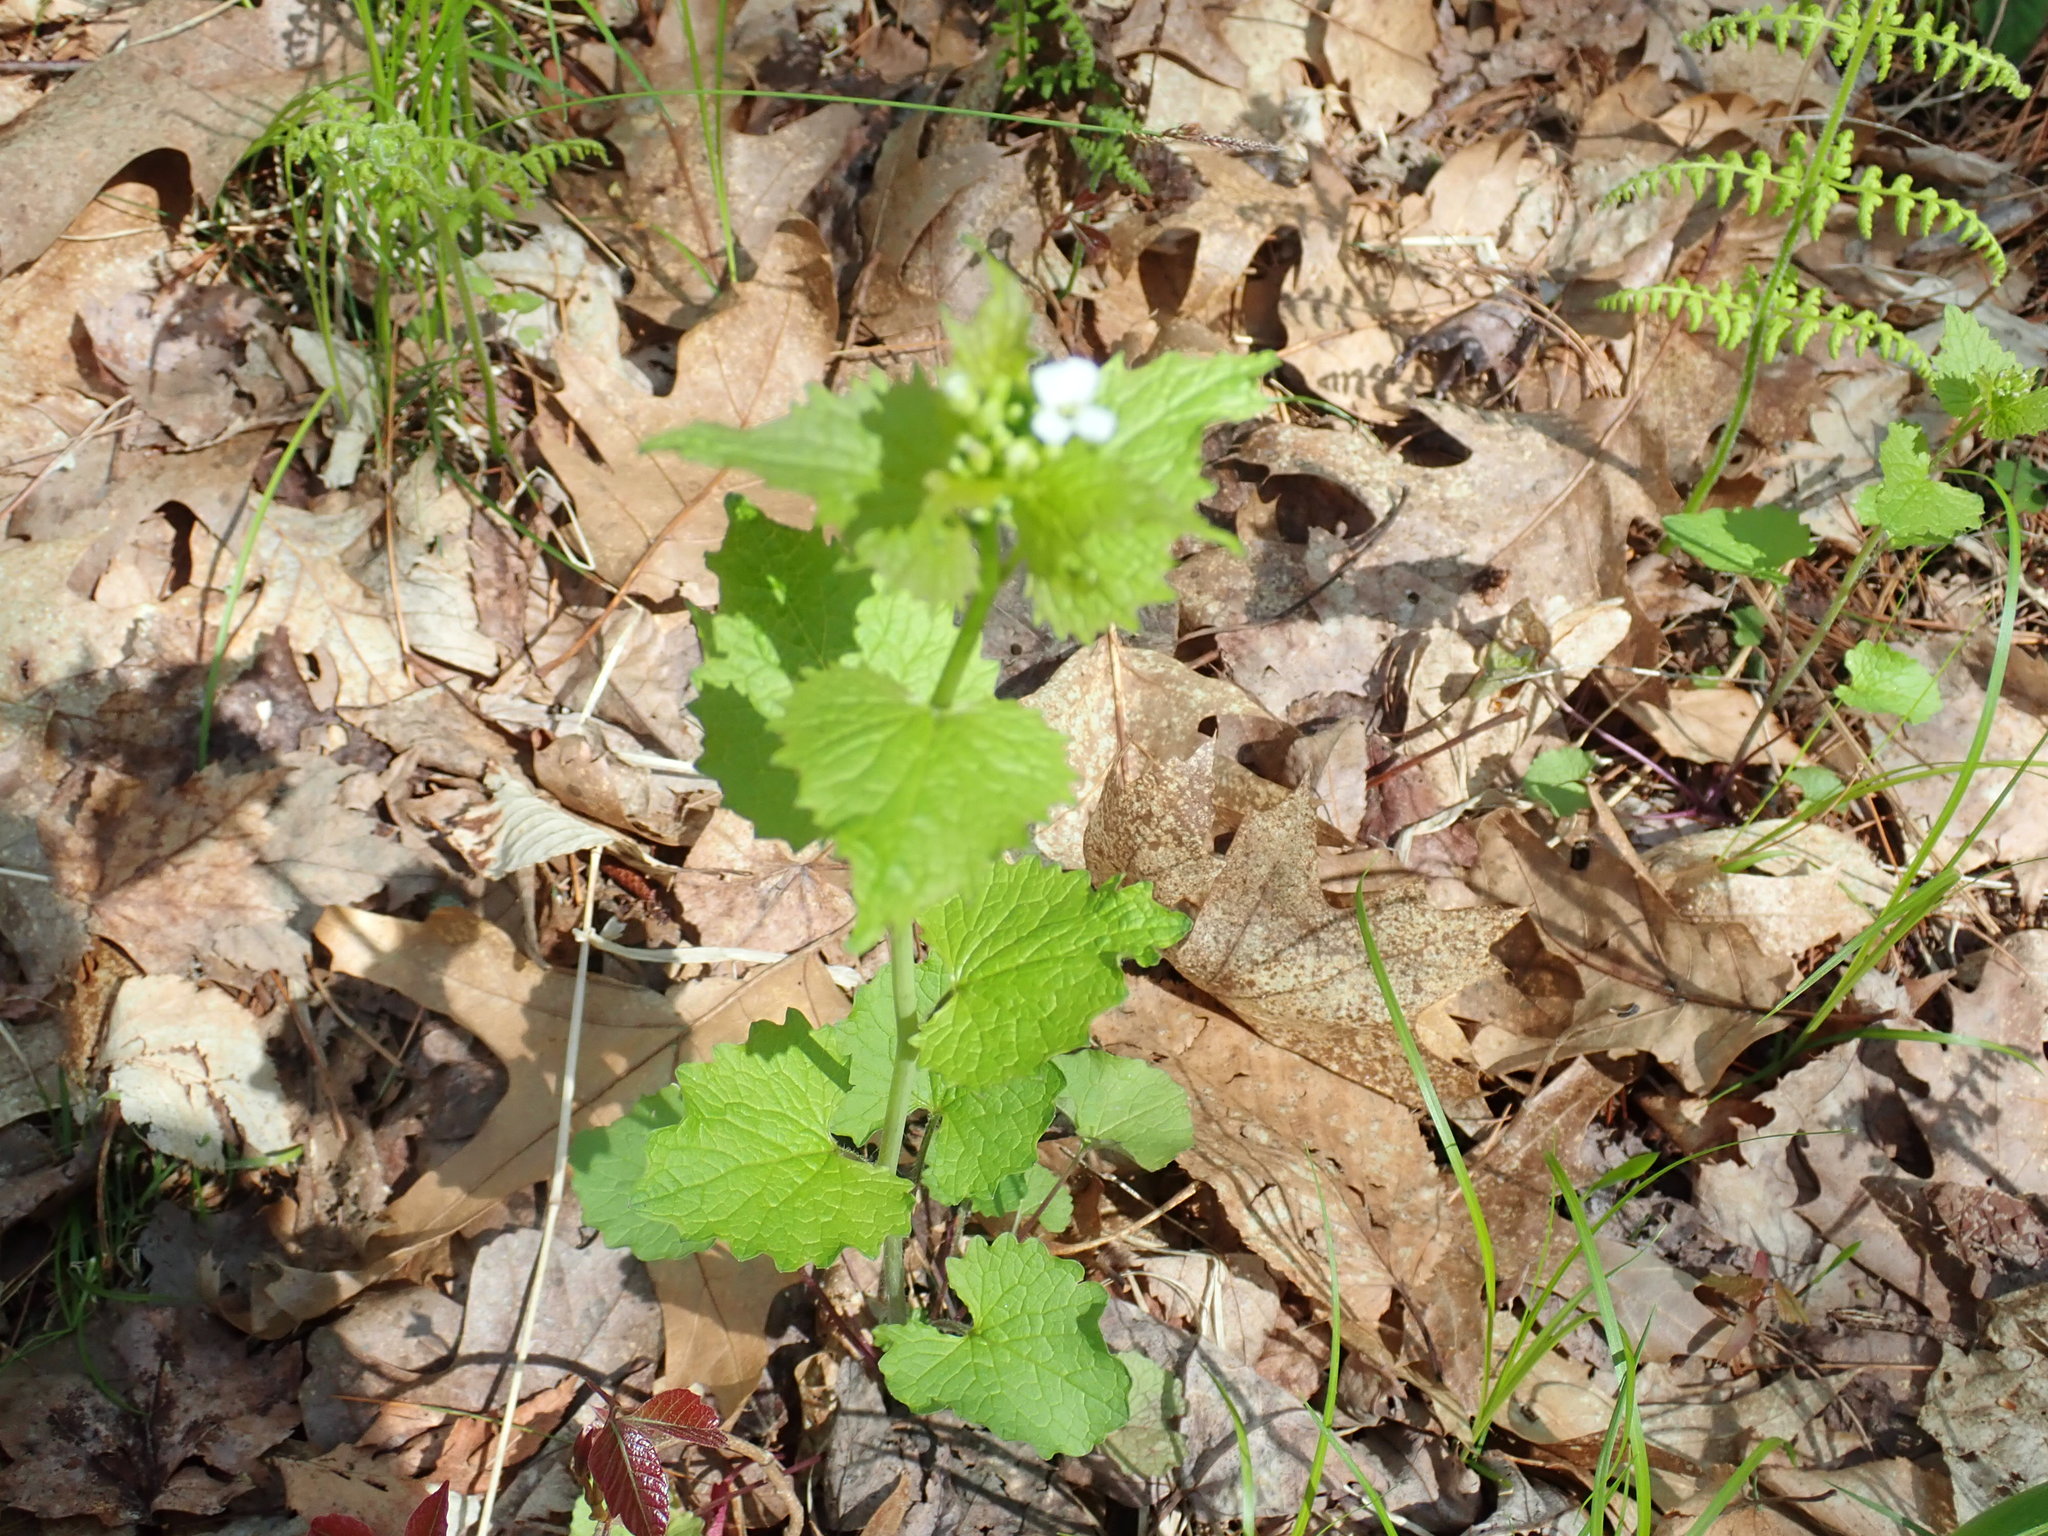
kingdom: Plantae
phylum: Tracheophyta
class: Magnoliopsida
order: Brassicales
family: Brassicaceae
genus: Alliaria
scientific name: Alliaria petiolata
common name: Garlic mustard
